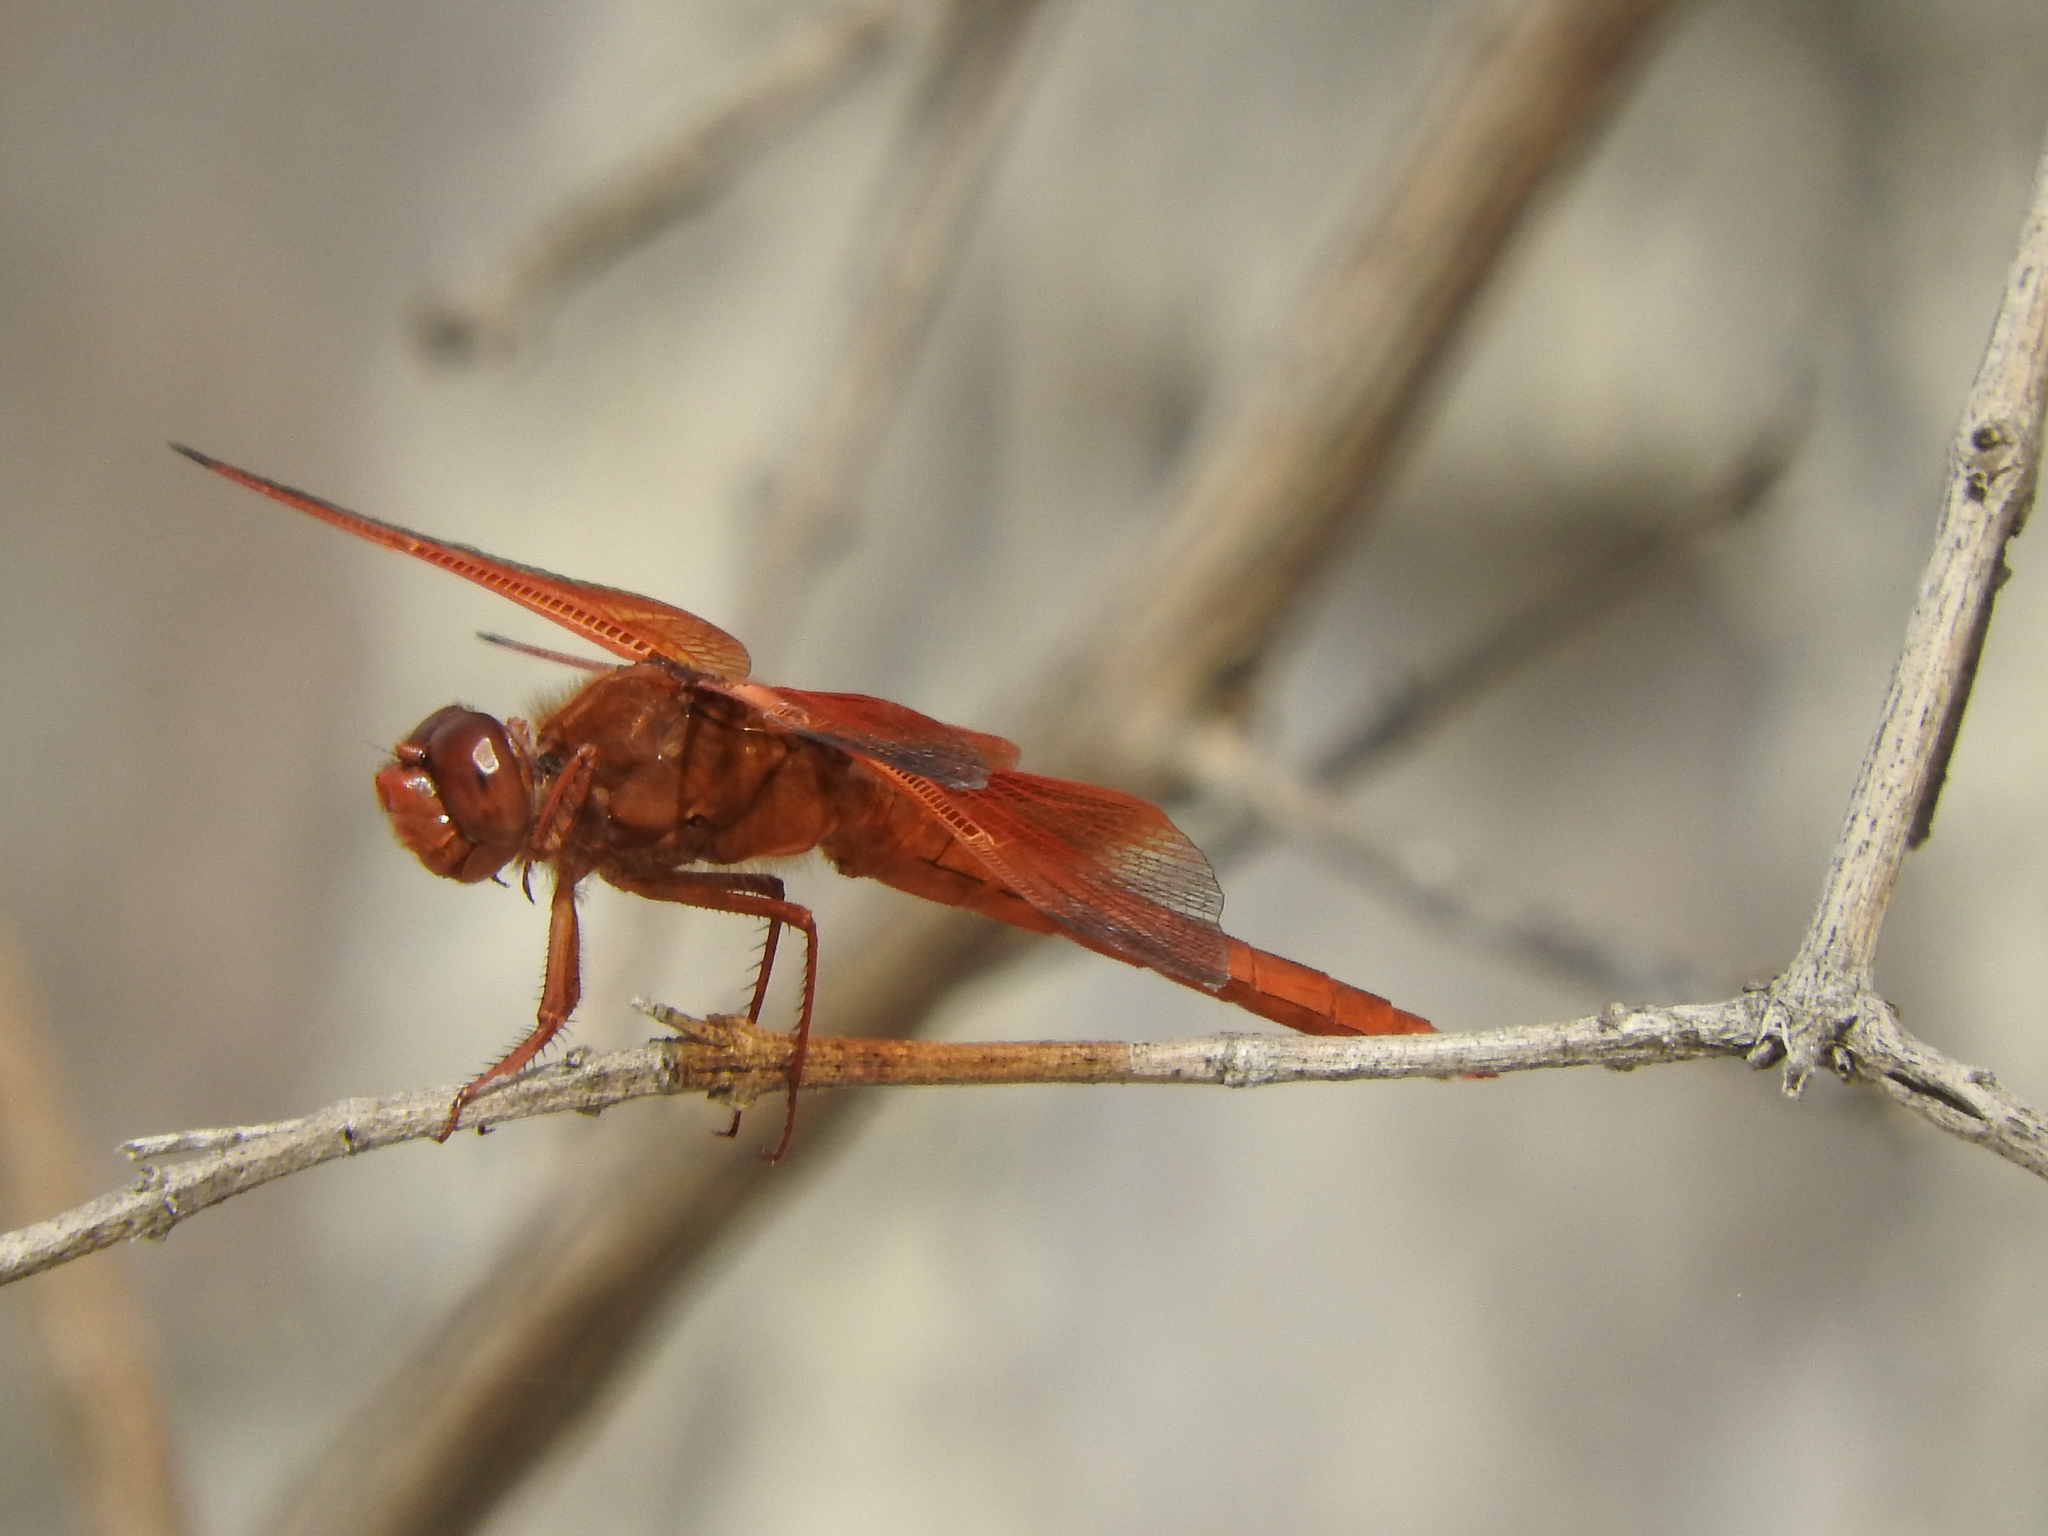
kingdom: Animalia
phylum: Arthropoda
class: Insecta
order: Odonata
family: Libellulidae
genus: Libellula
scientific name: Libellula saturata
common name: Flame skimmer
